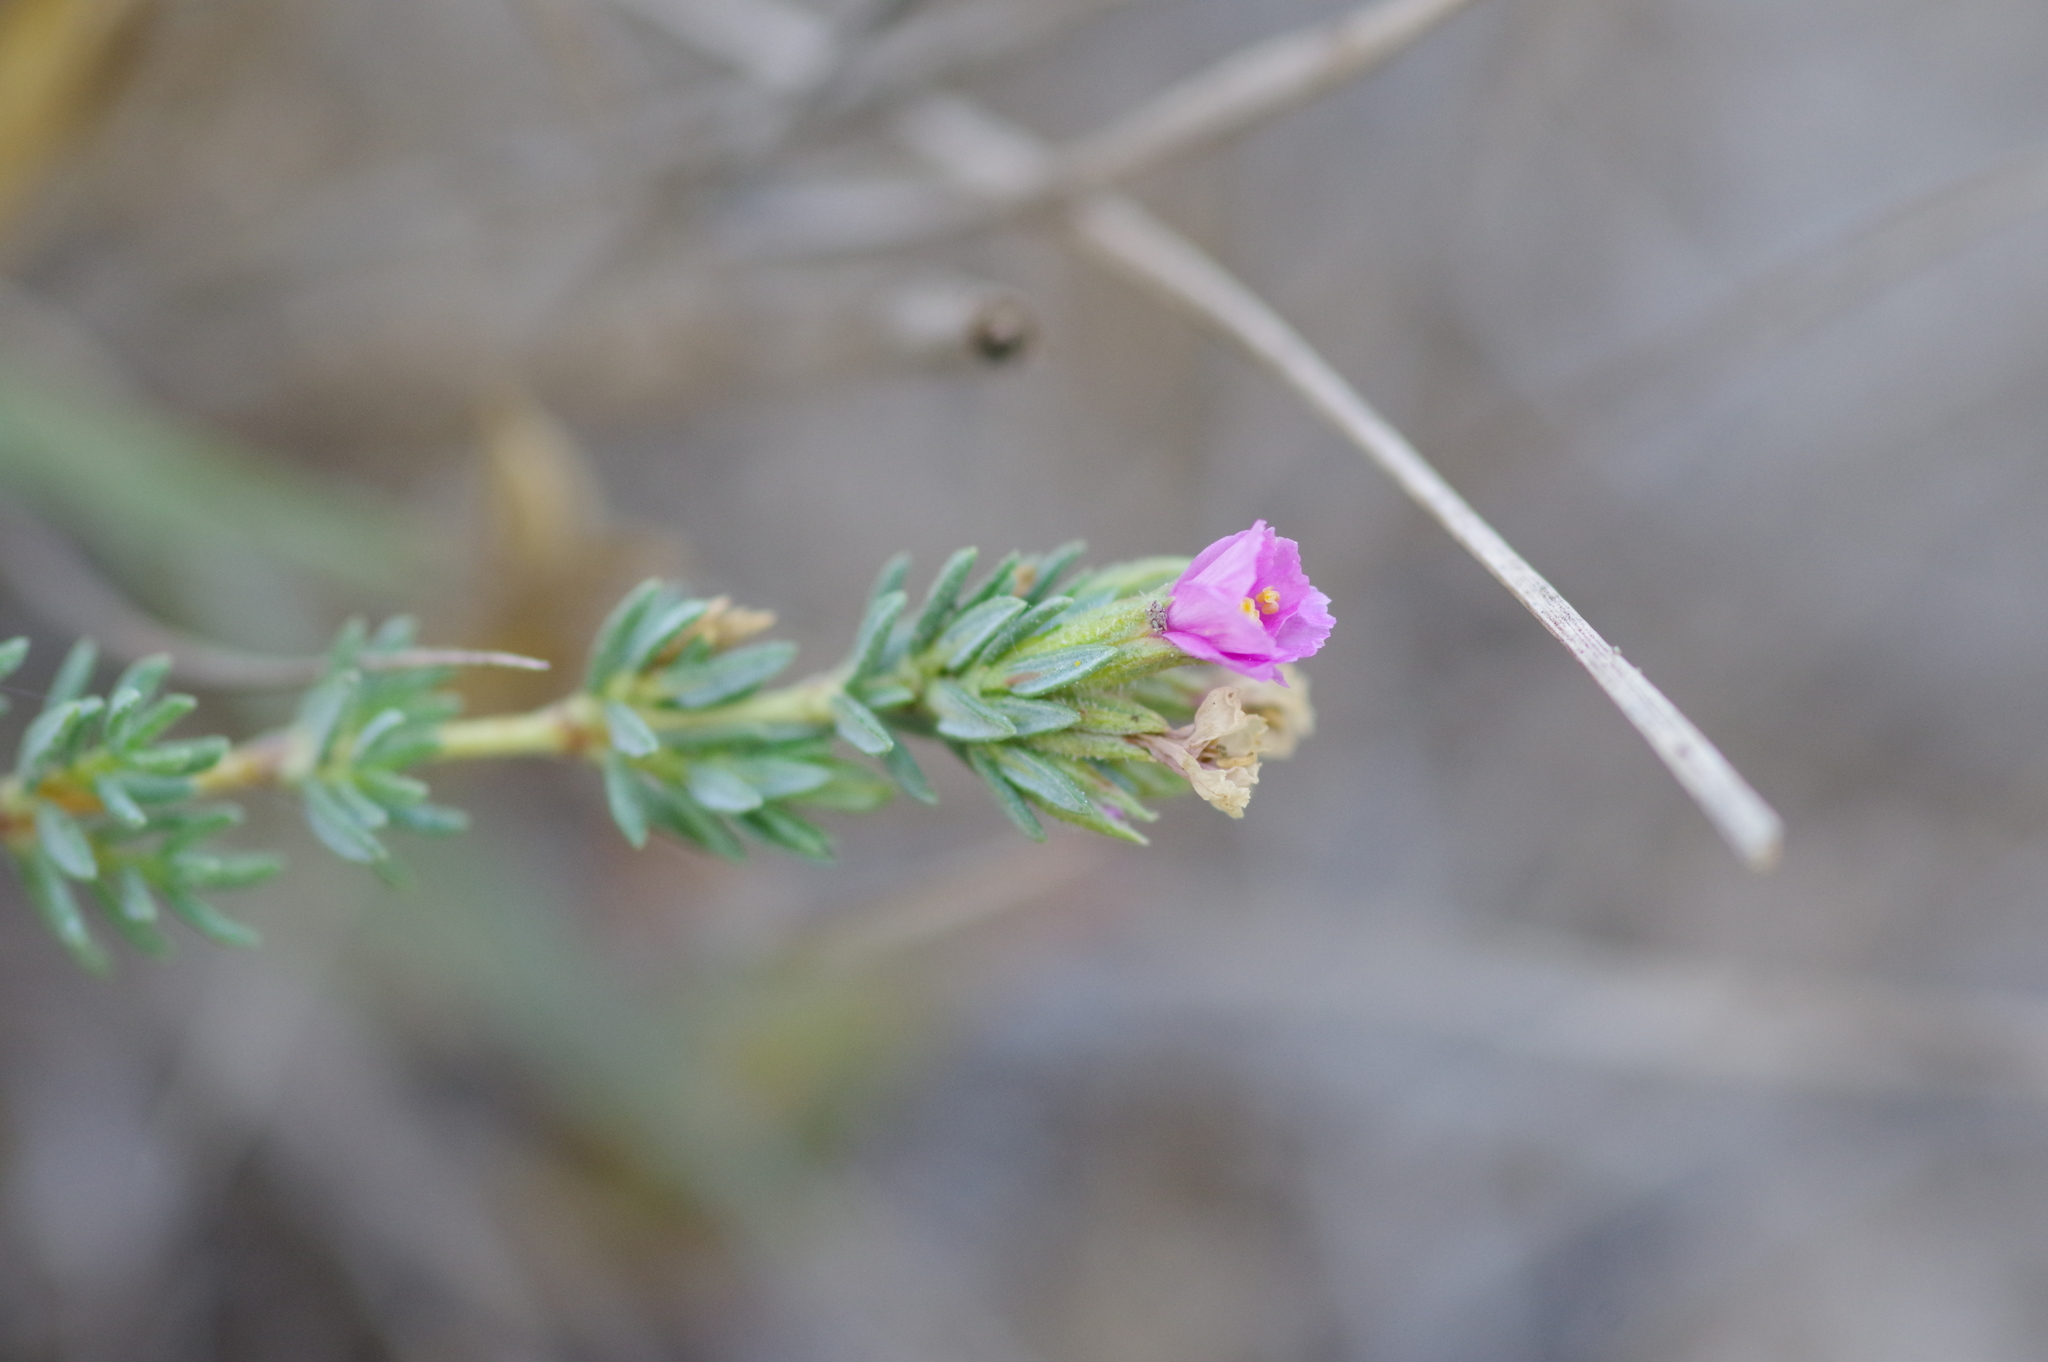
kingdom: Plantae
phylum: Tracheophyta
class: Magnoliopsida
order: Caryophyllales
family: Frankeniaceae
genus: Frankenia
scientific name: Frankenia hirsuta
